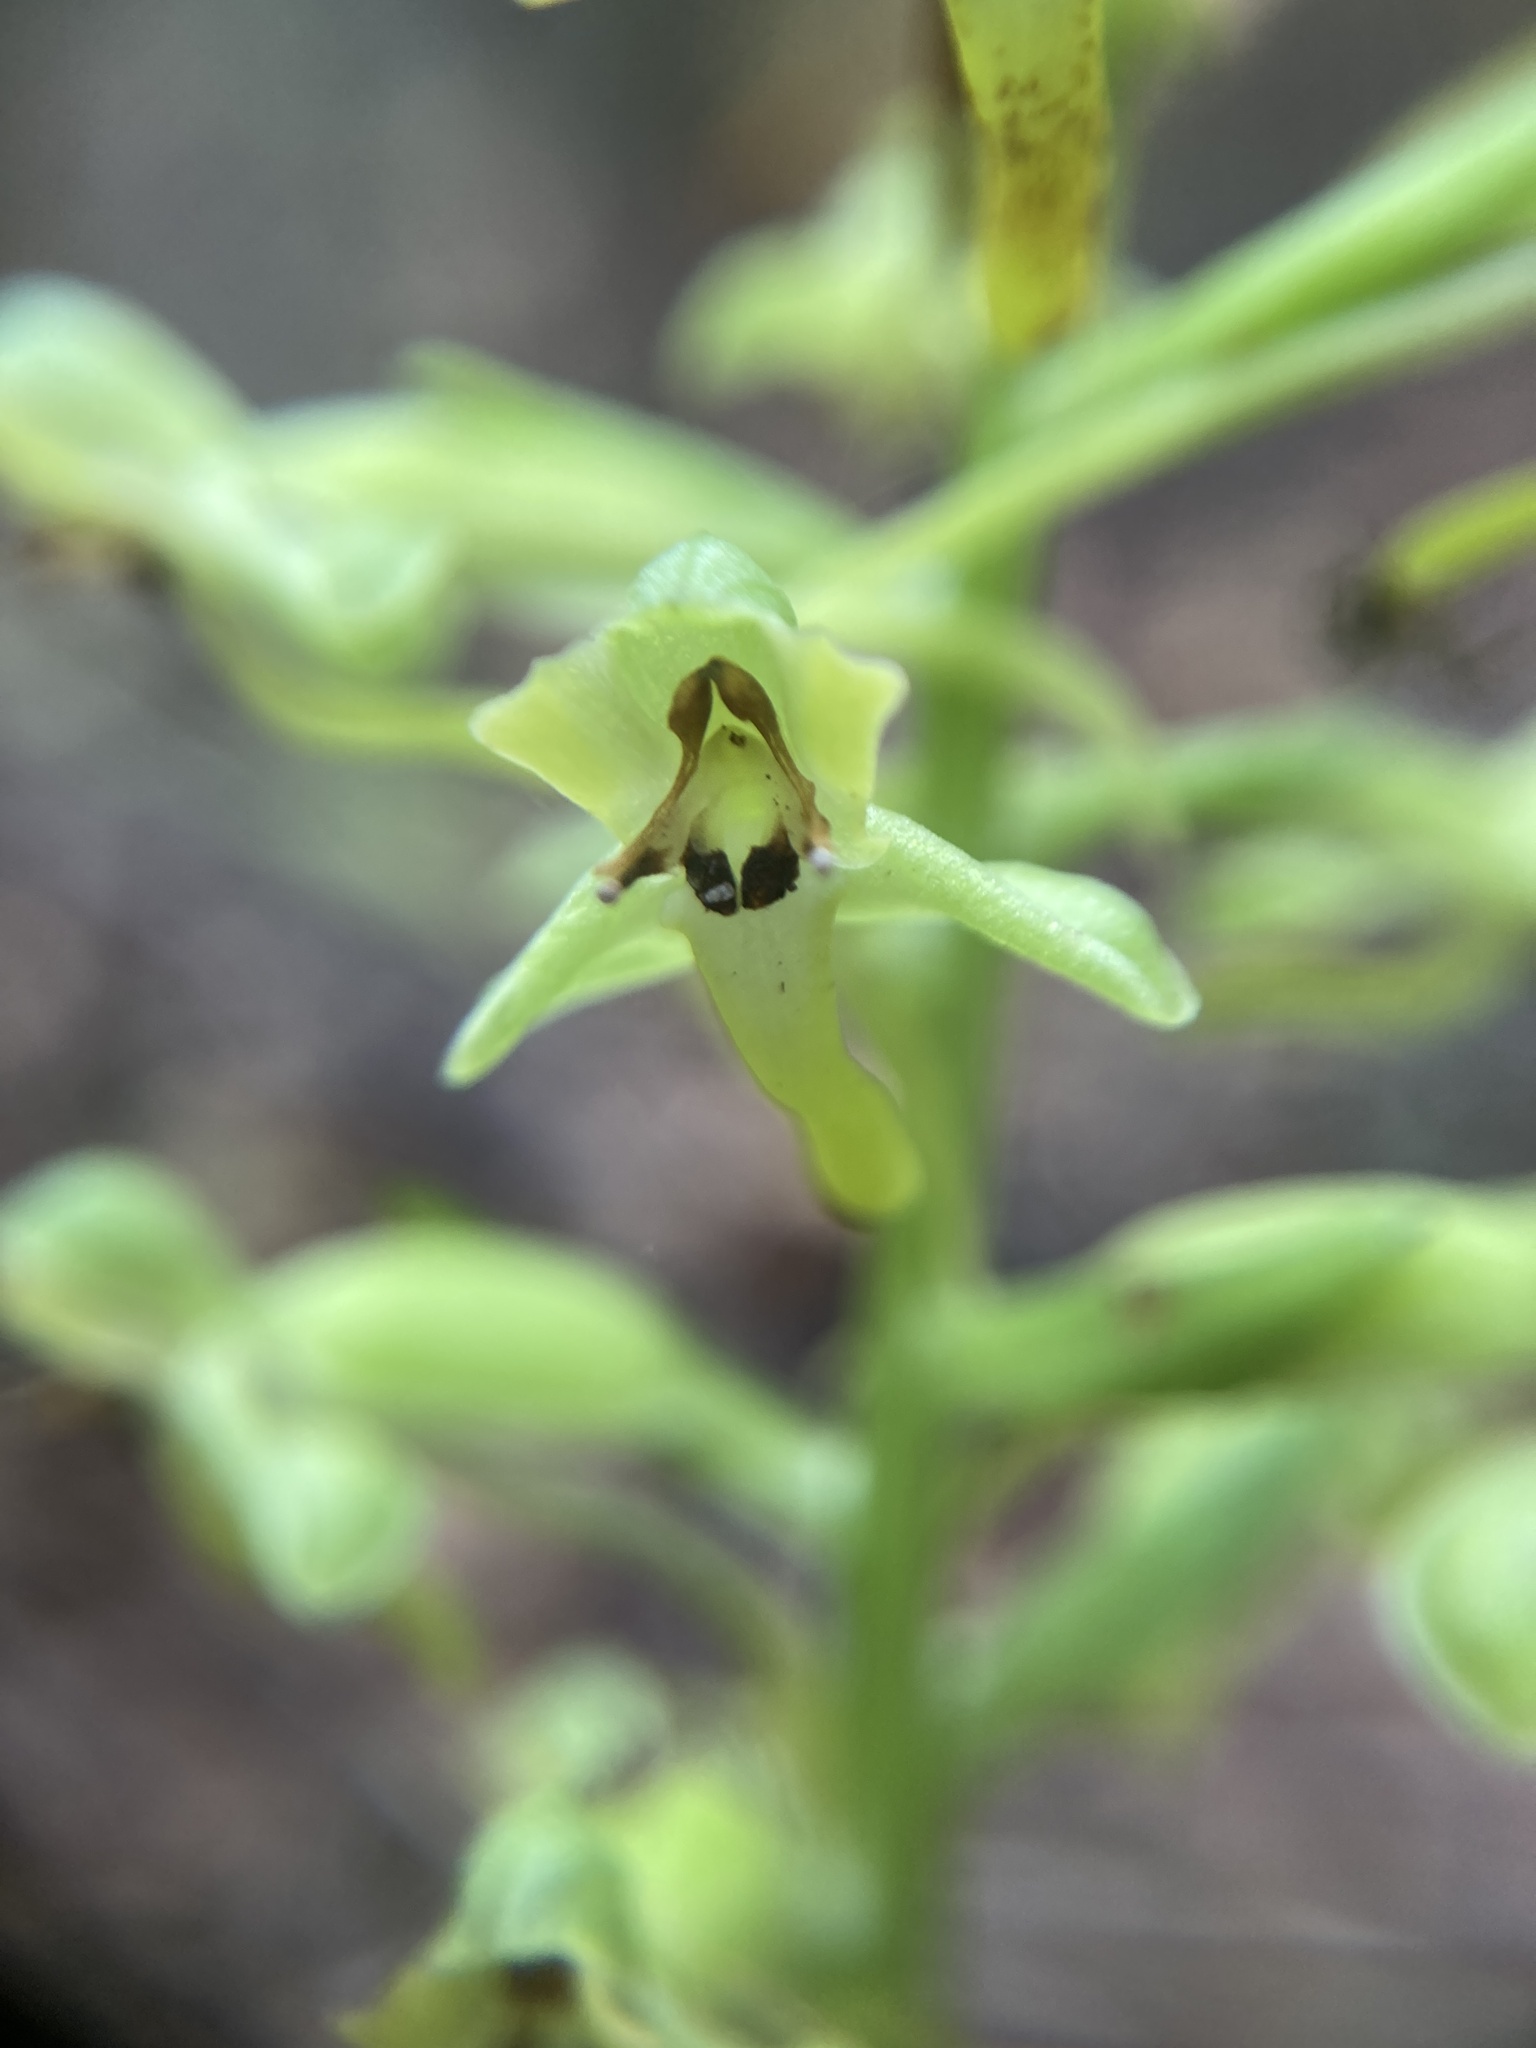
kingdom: Plantae
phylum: Tracheophyta
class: Liliopsida
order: Asparagales
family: Orchidaceae
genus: Habenaria
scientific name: Habenaria floribunda
